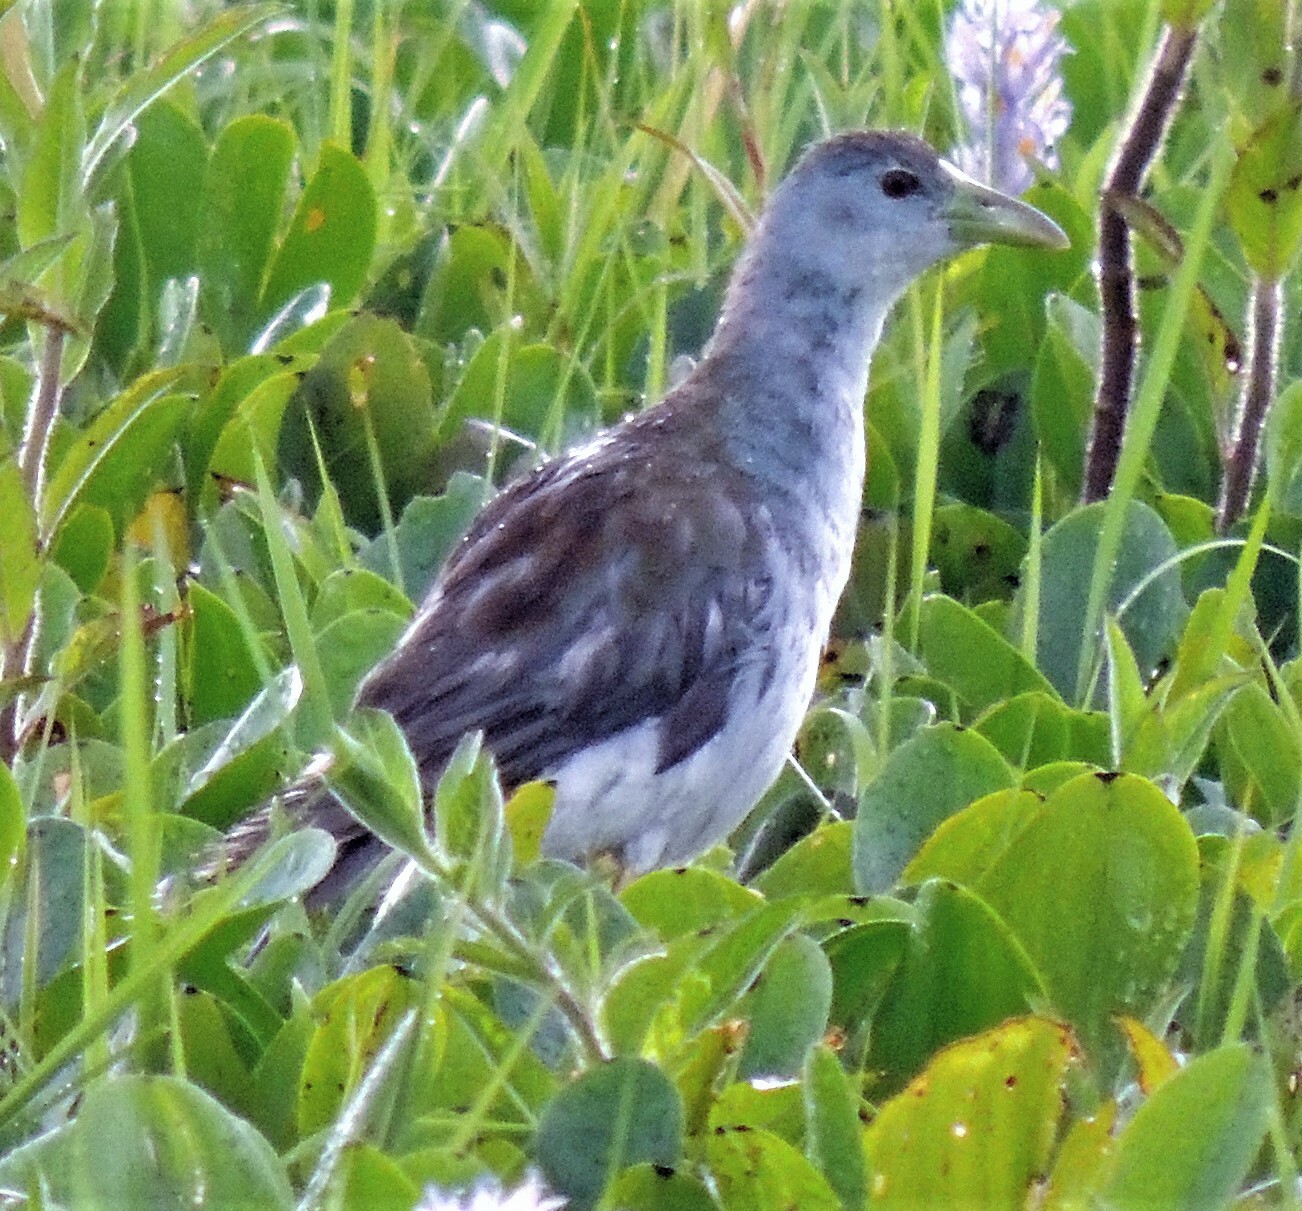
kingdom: Animalia
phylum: Chordata
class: Aves
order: Gruiformes
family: Rallidae
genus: Porphyrio
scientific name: Porphyrio flavirostris
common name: Azure gallinule
